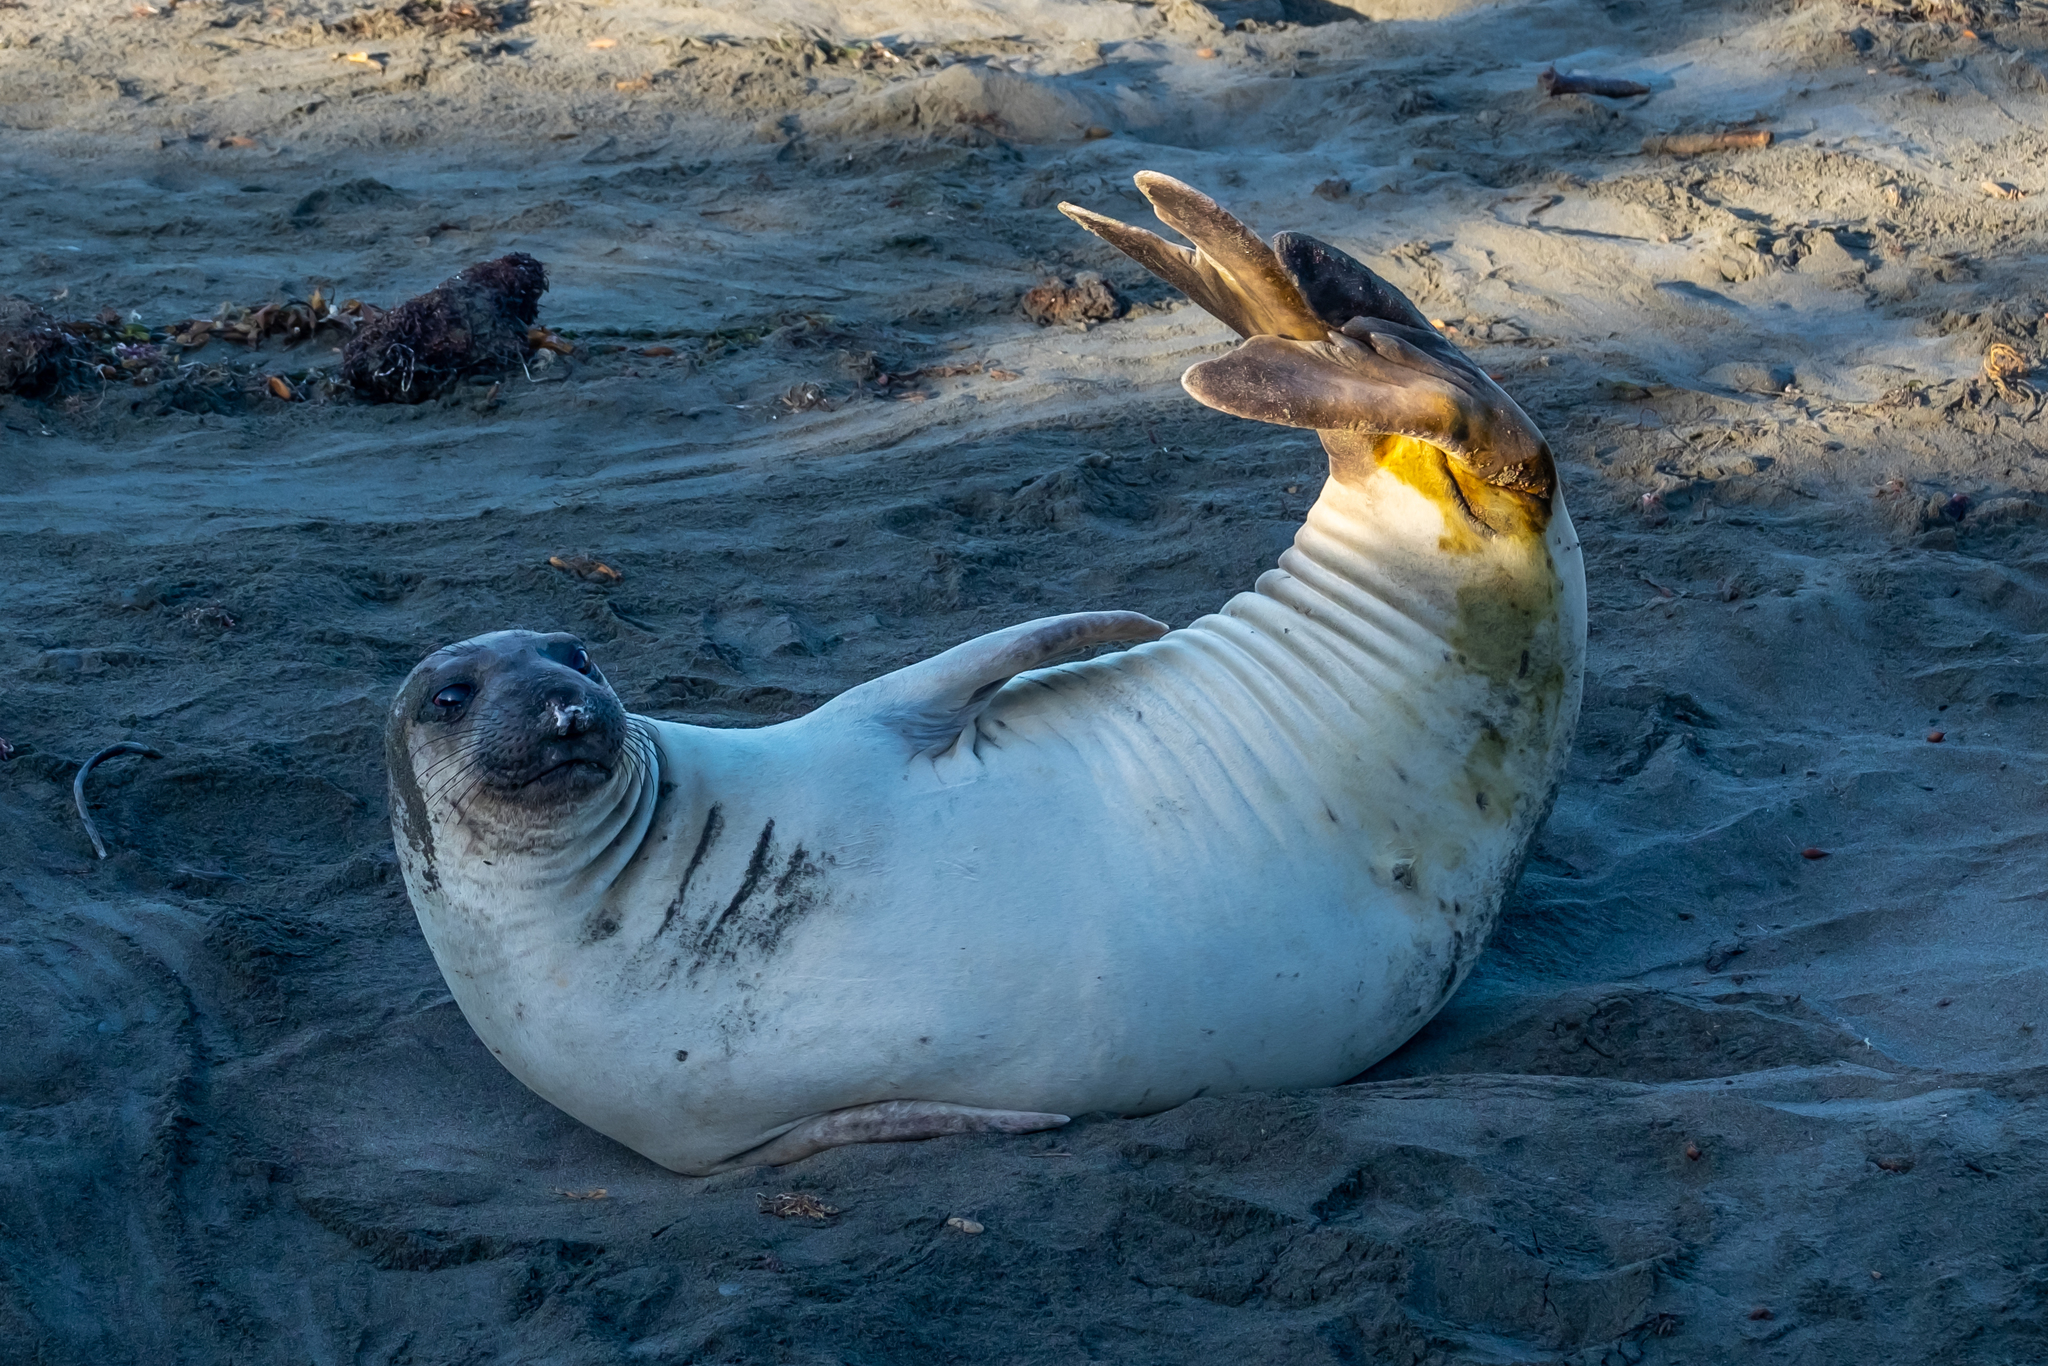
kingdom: Animalia
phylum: Chordata
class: Mammalia
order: Carnivora
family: Phocidae
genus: Mirounga
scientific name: Mirounga angustirostris
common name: Northern elephant seal
